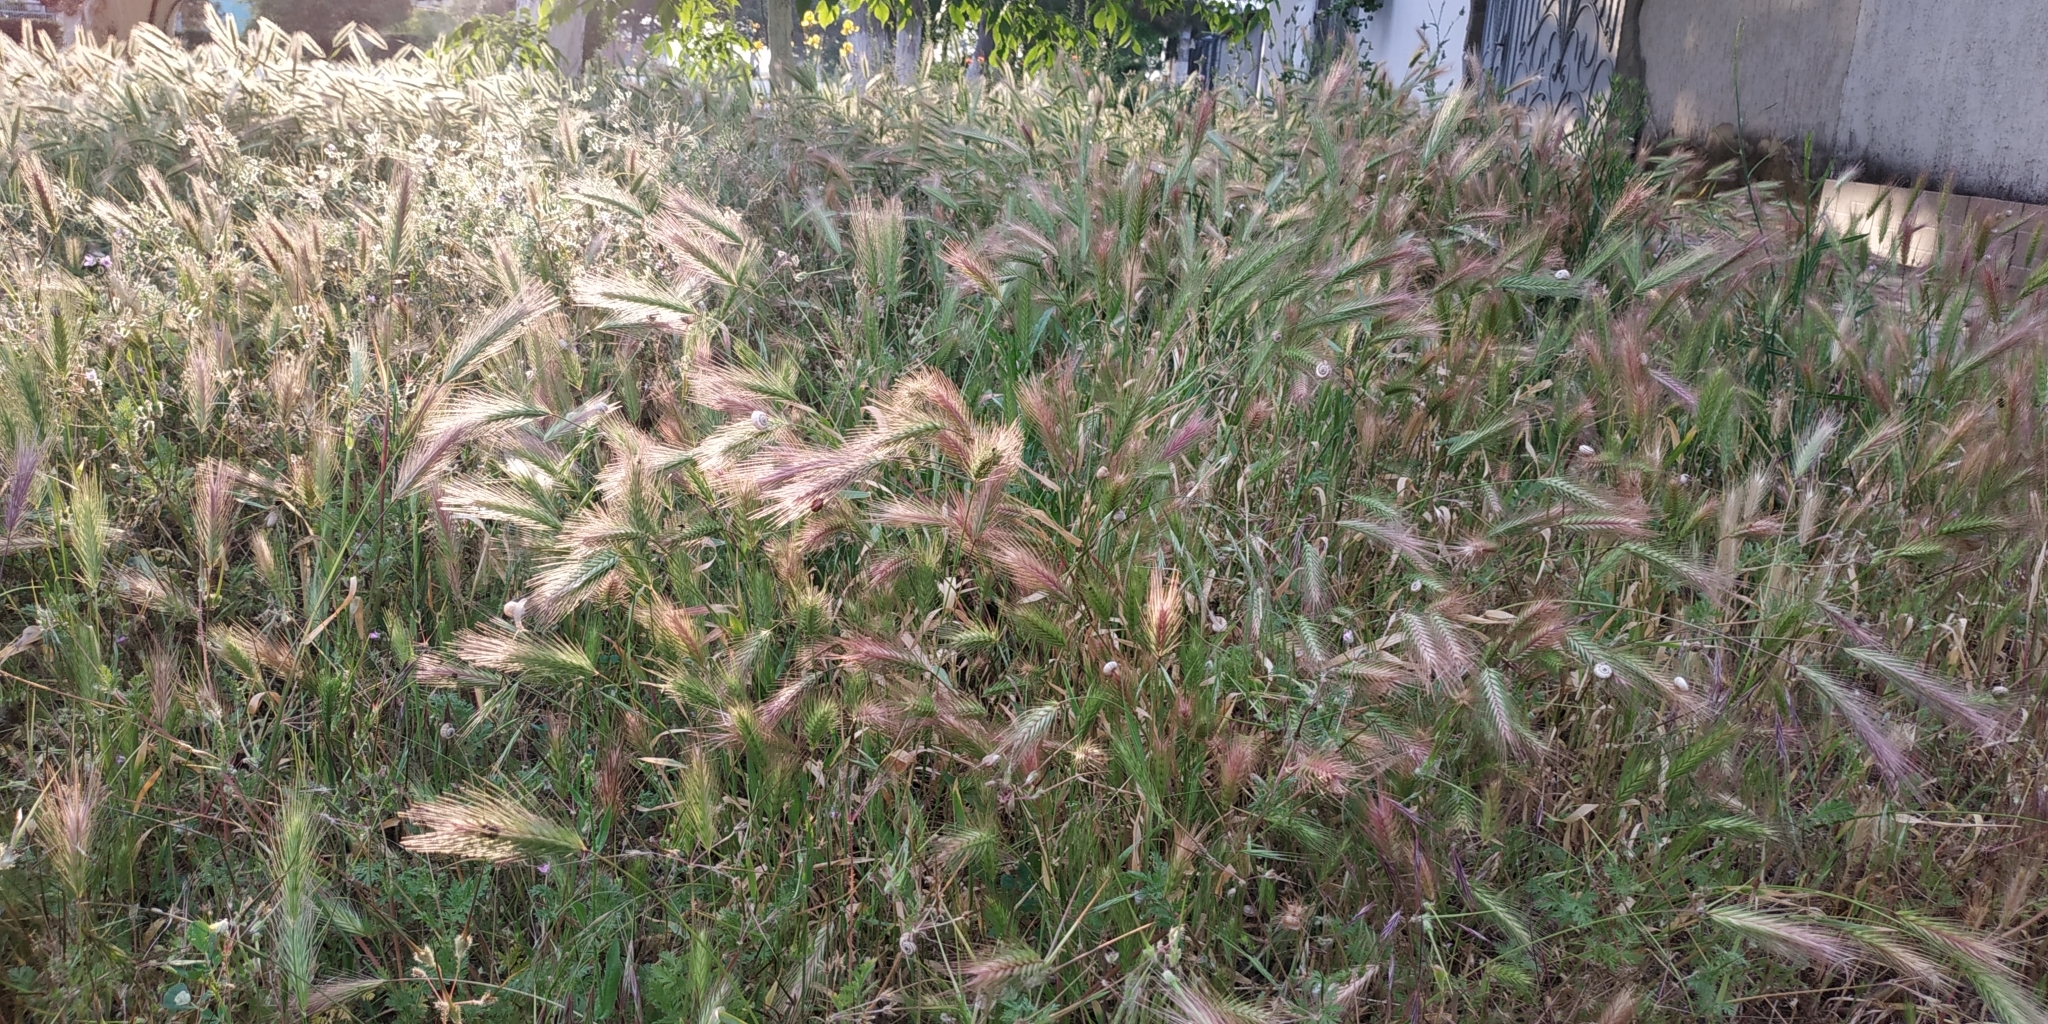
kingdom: Plantae
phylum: Tracheophyta
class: Liliopsida
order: Poales
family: Poaceae
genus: Hordeum
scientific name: Hordeum murinum
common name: Wall barley
